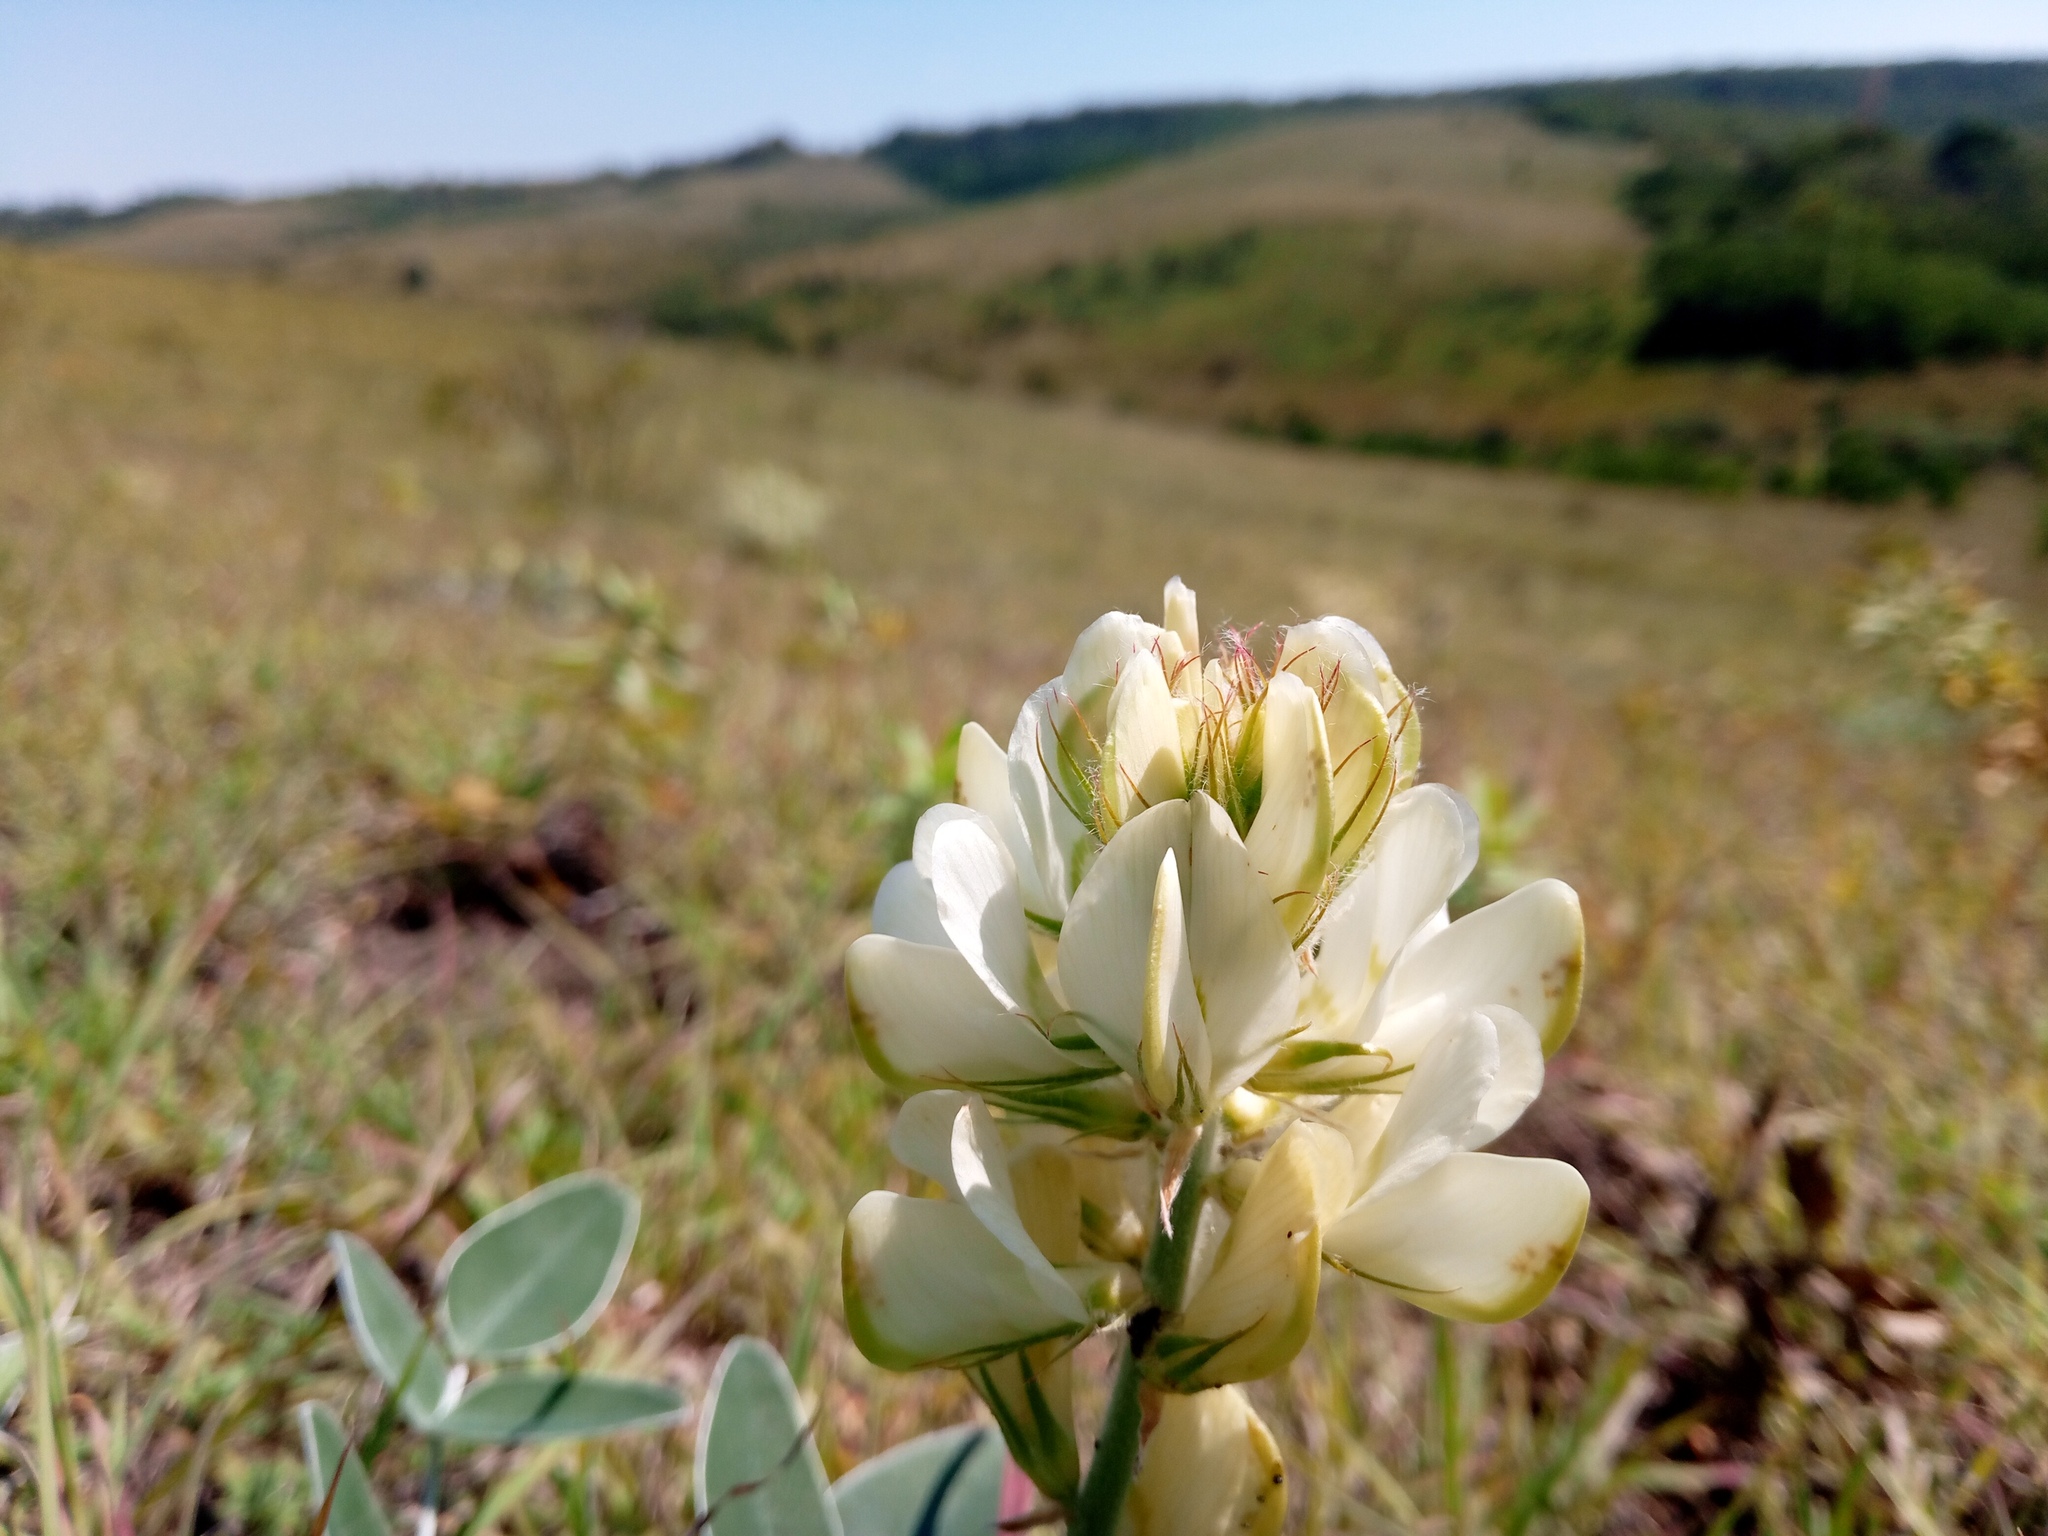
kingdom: Plantae
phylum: Tracheophyta
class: Magnoliopsida
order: Fabales
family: Fabaceae
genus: Hedysarum
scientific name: Hedysarum grandiflorum
